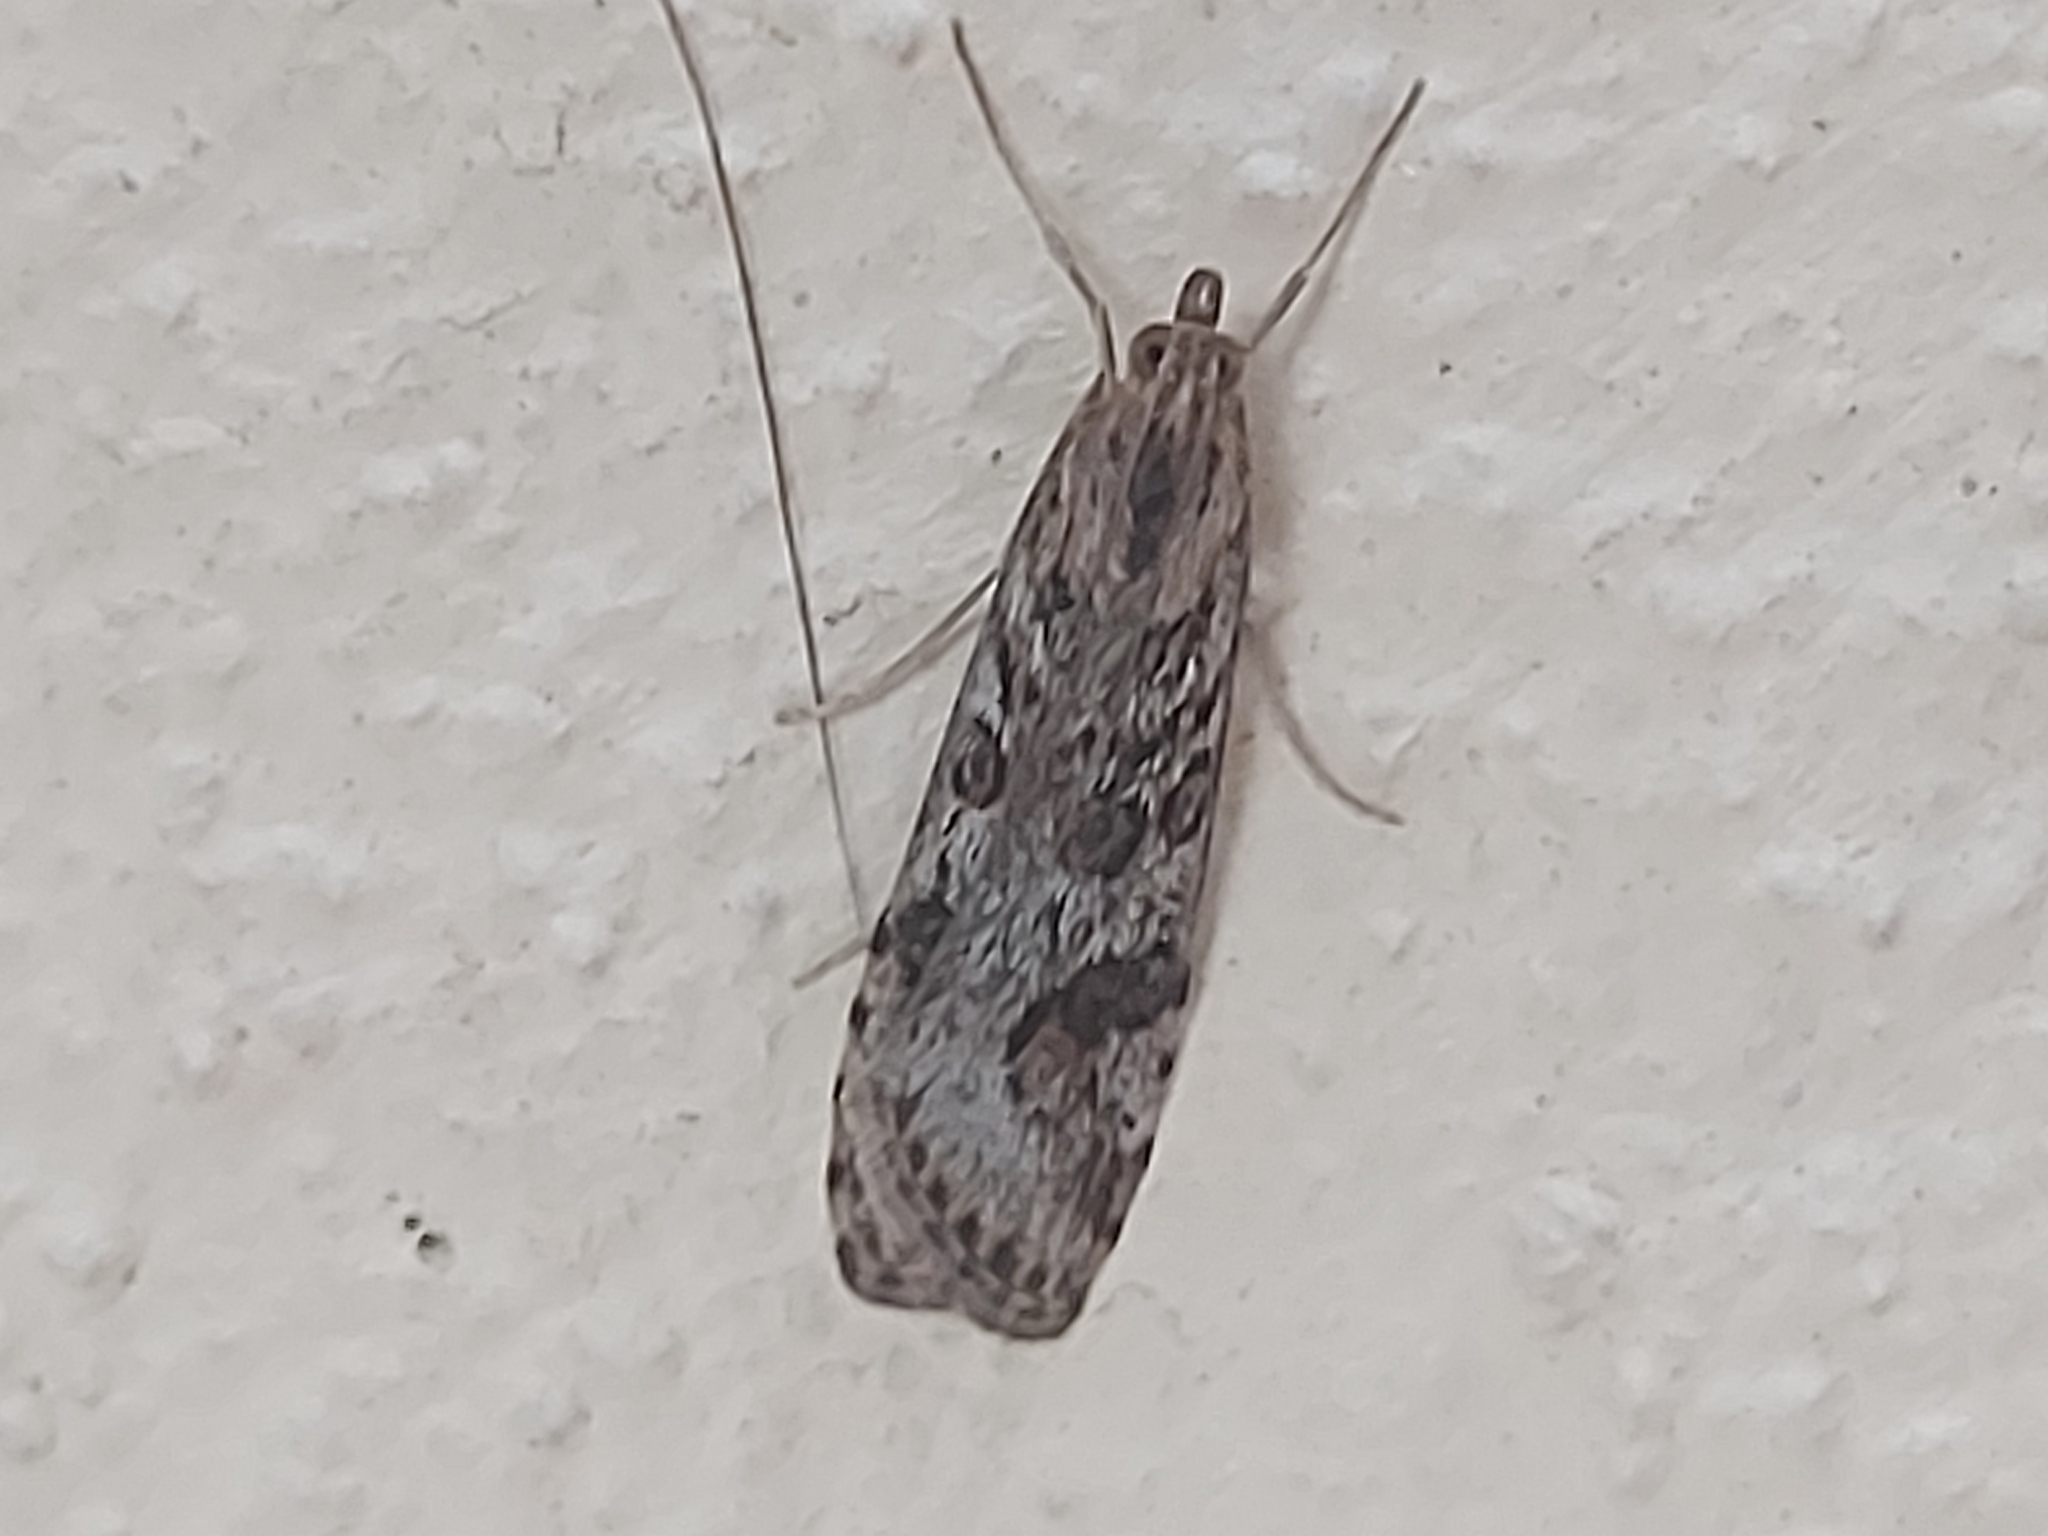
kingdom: Animalia
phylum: Arthropoda
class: Insecta
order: Lepidoptera
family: Crambidae
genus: Nomophila
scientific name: Nomophila noctuella
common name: Rush veneer
